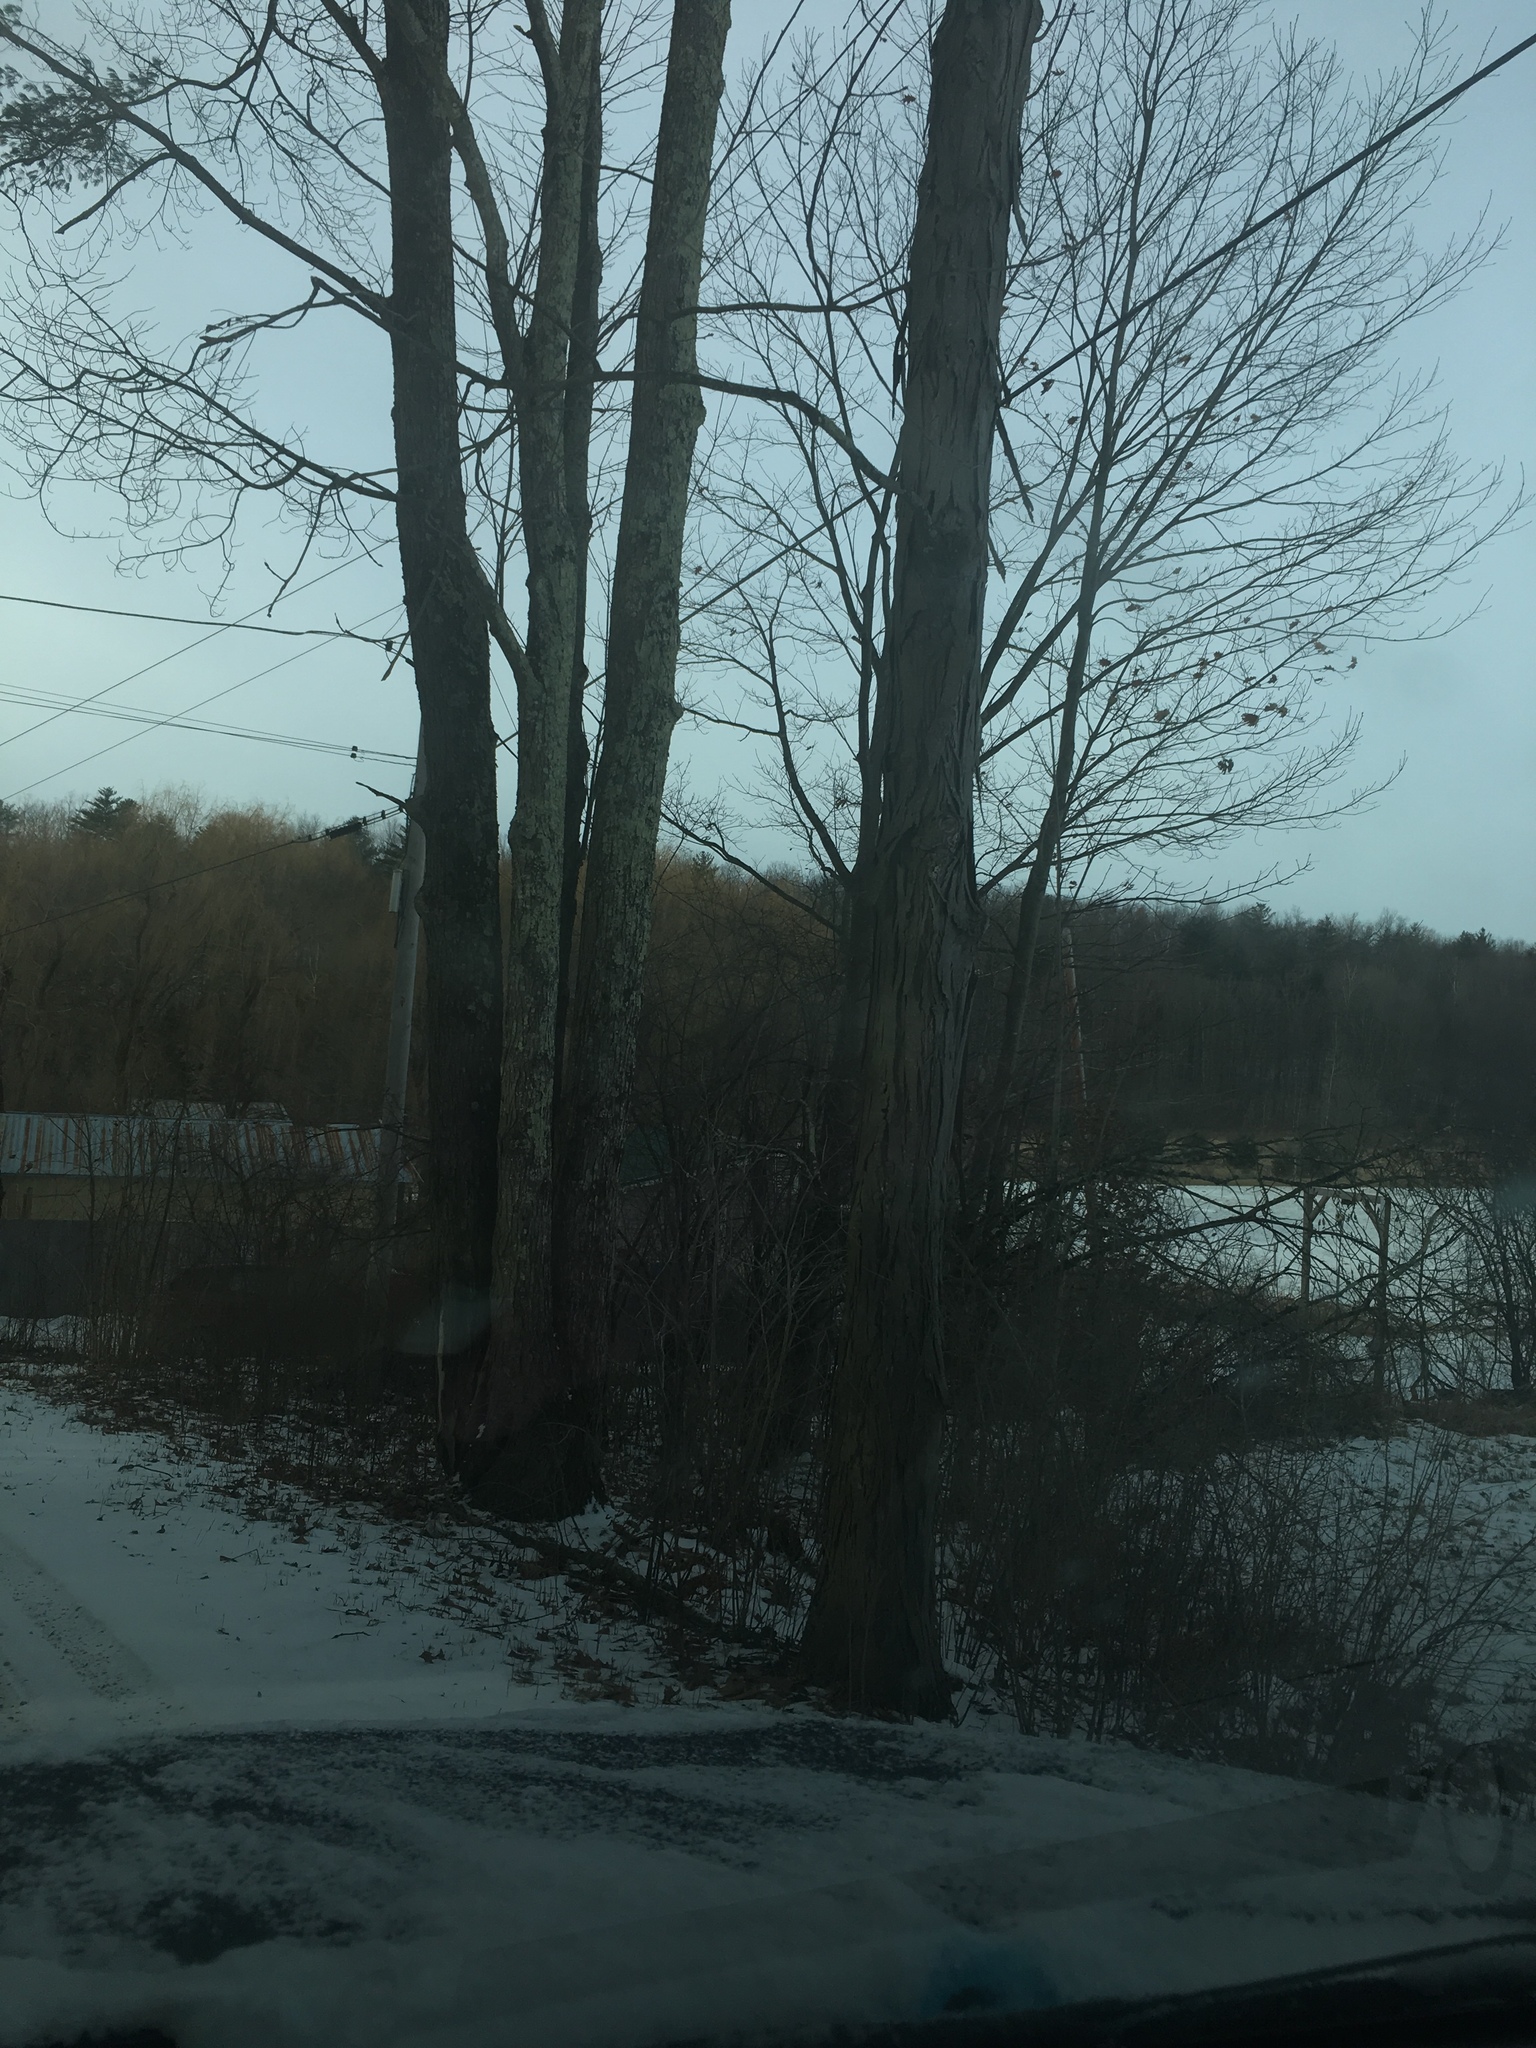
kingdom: Plantae
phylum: Tracheophyta
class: Magnoliopsida
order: Fagales
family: Juglandaceae
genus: Carya
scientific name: Carya ovata
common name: Shagbark hickory
